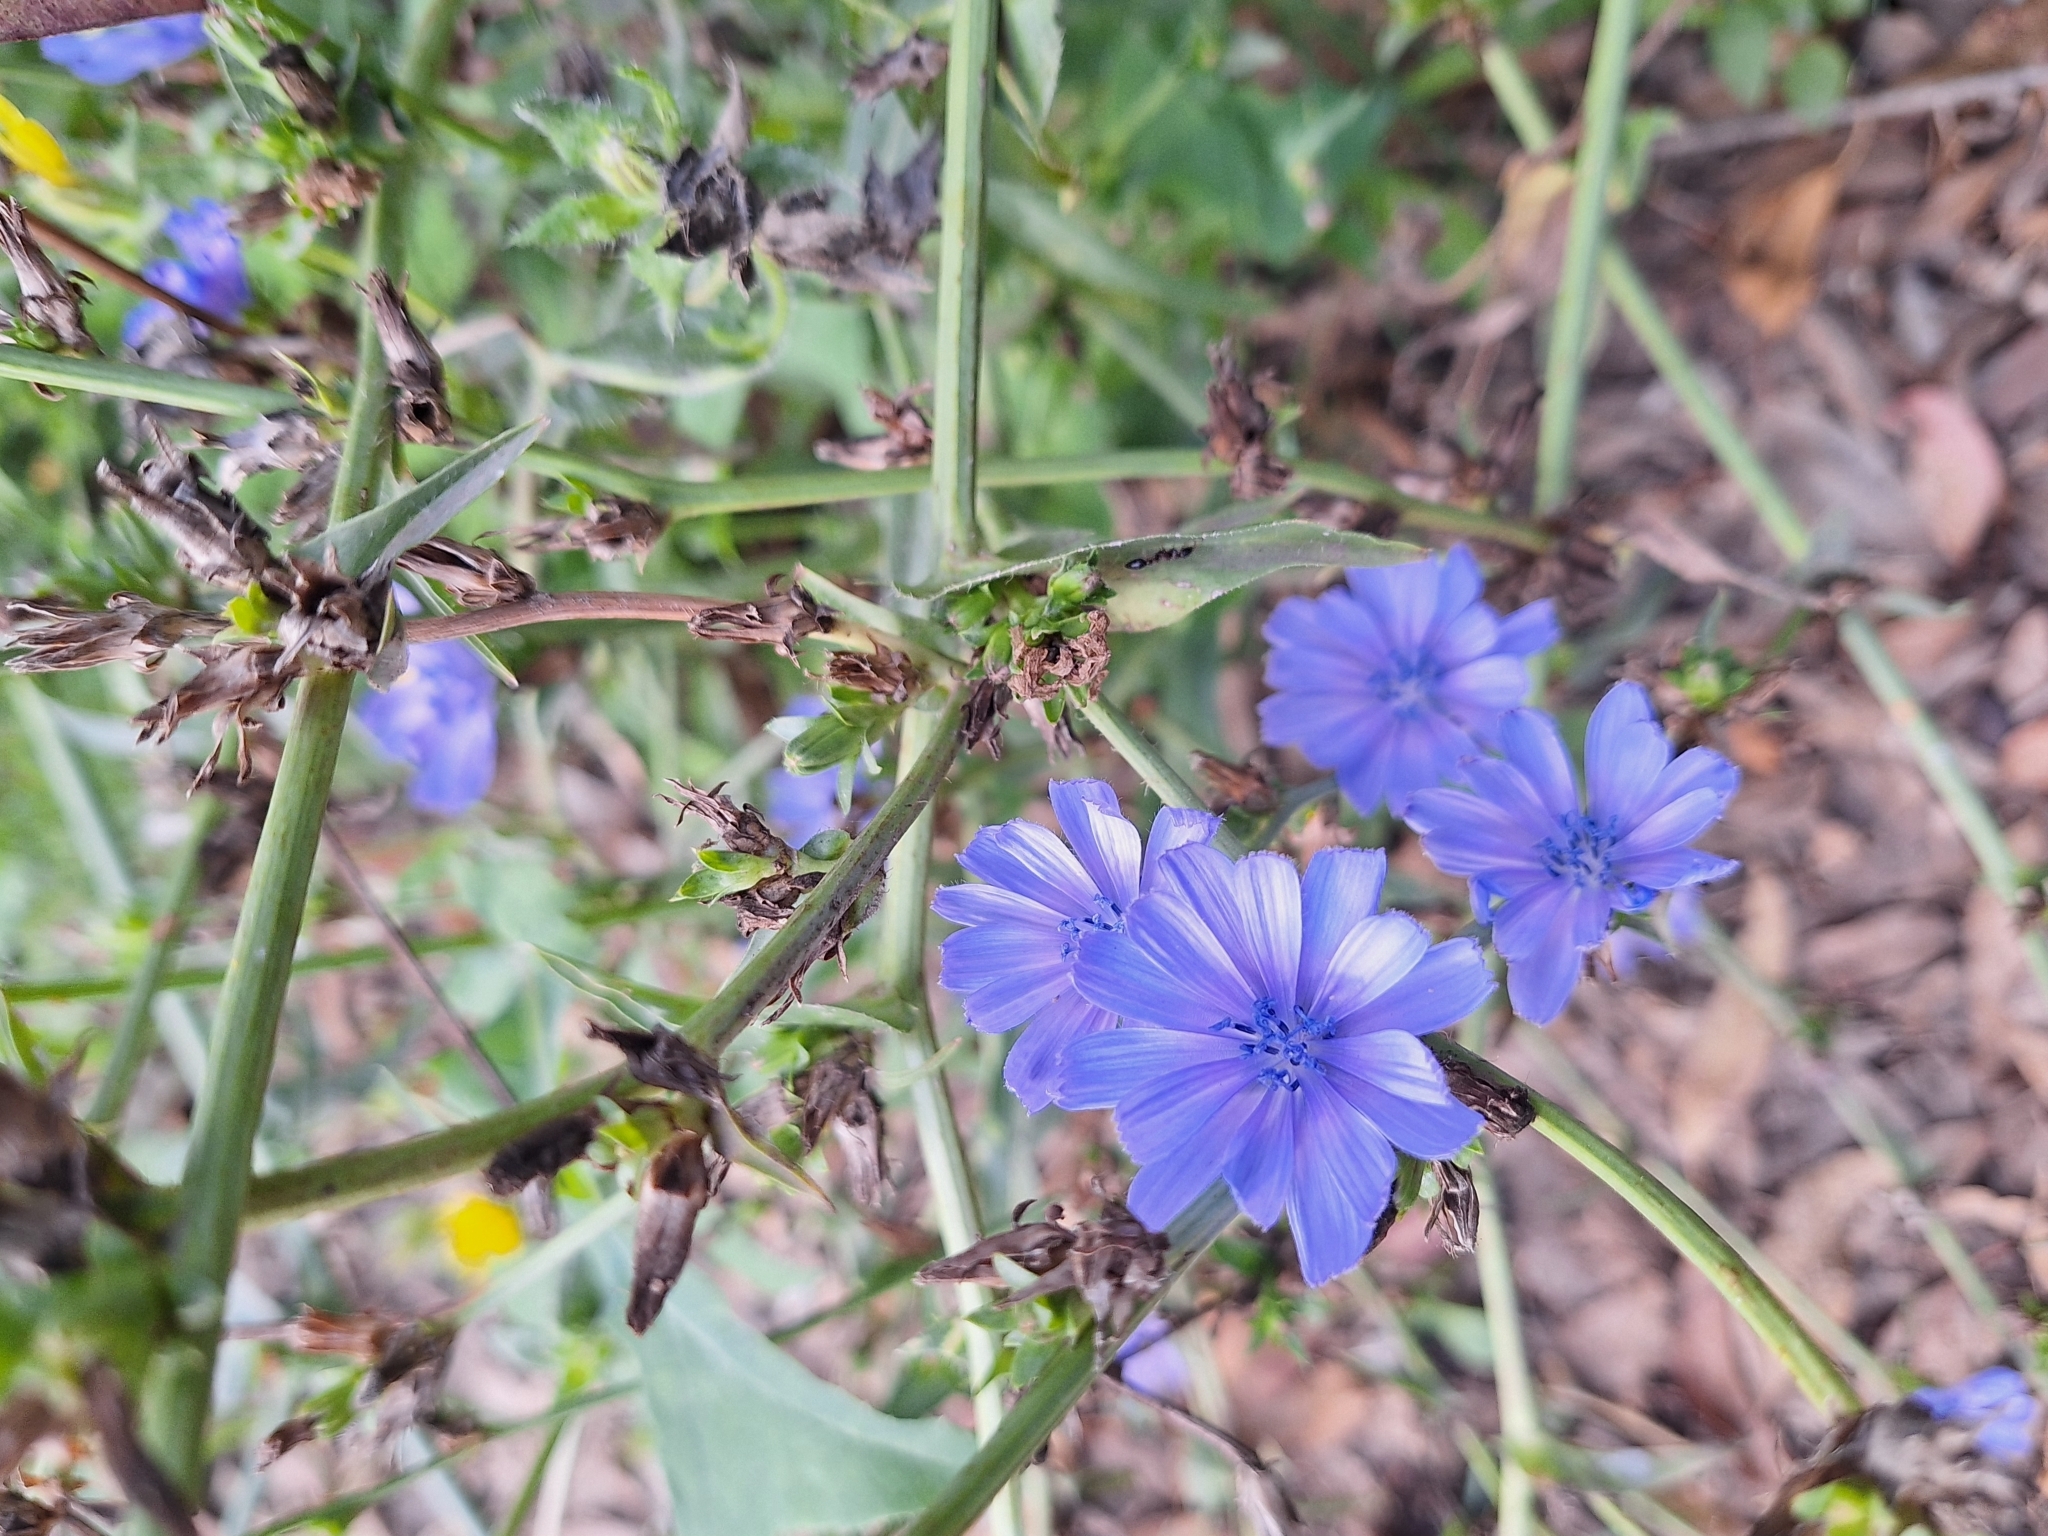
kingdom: Plantae
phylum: Tracheophyta
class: Magnoliopsida
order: Asterales
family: Asteraceae
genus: Cichorium
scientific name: Cichorium intybus
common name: Chicory
